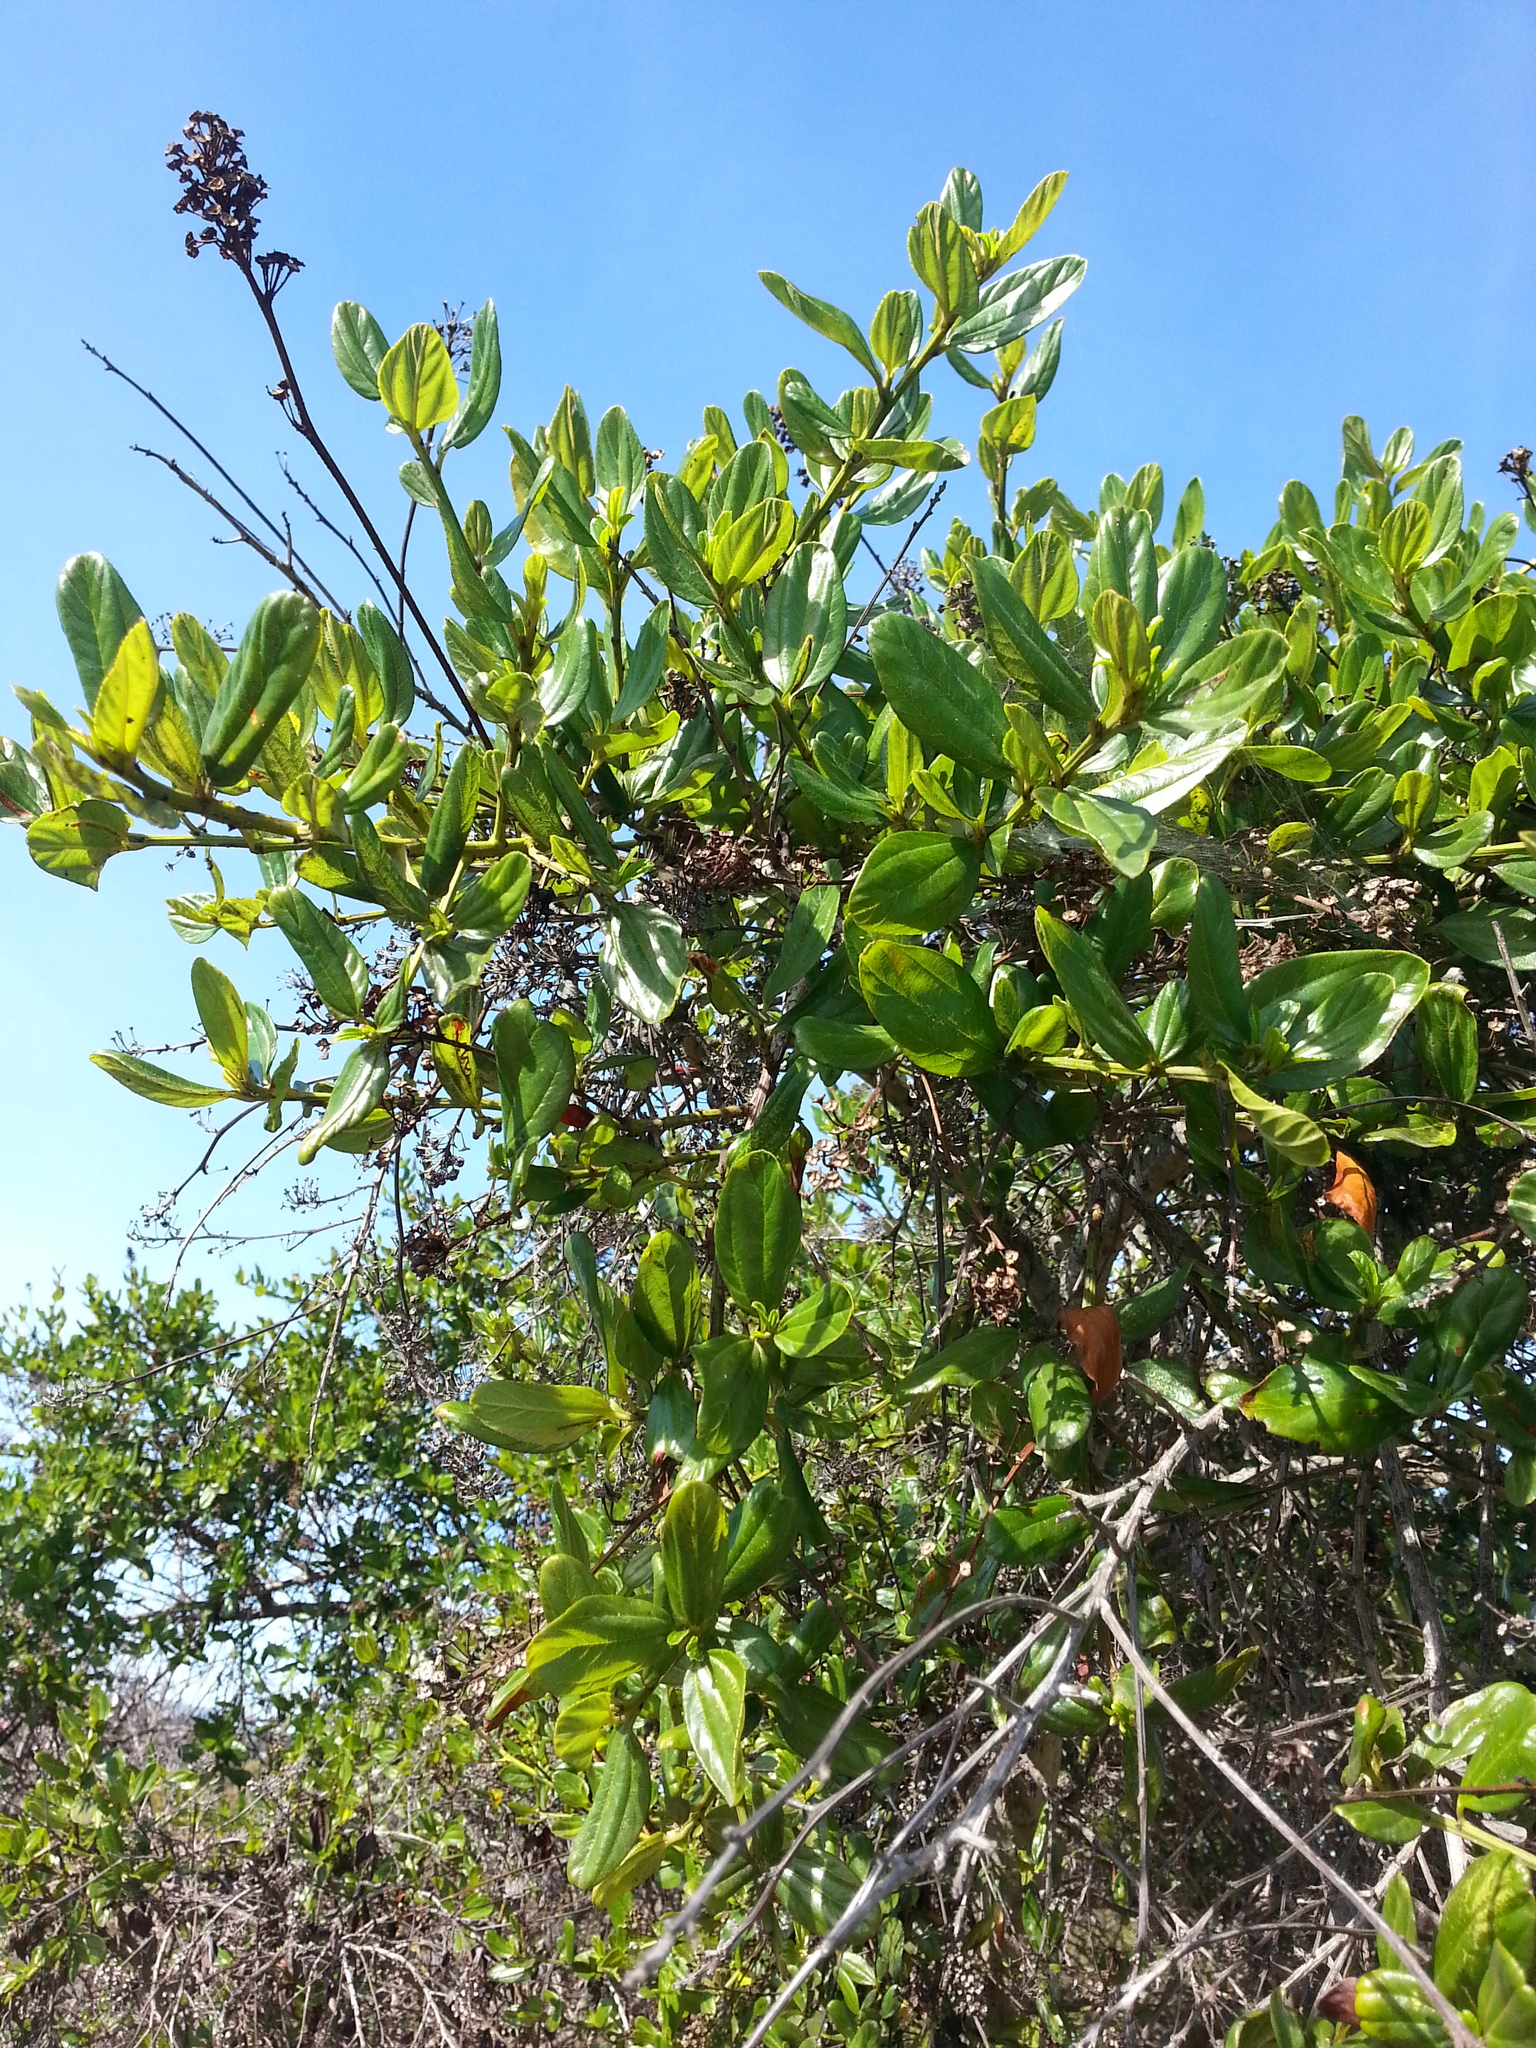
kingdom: Plantae
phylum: Tracheophyta
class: Magnoliopsida
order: Rosales
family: Rhamnaceae
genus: Ceanothus
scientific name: Ceanothus thyrsiflorus
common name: California-lilac
